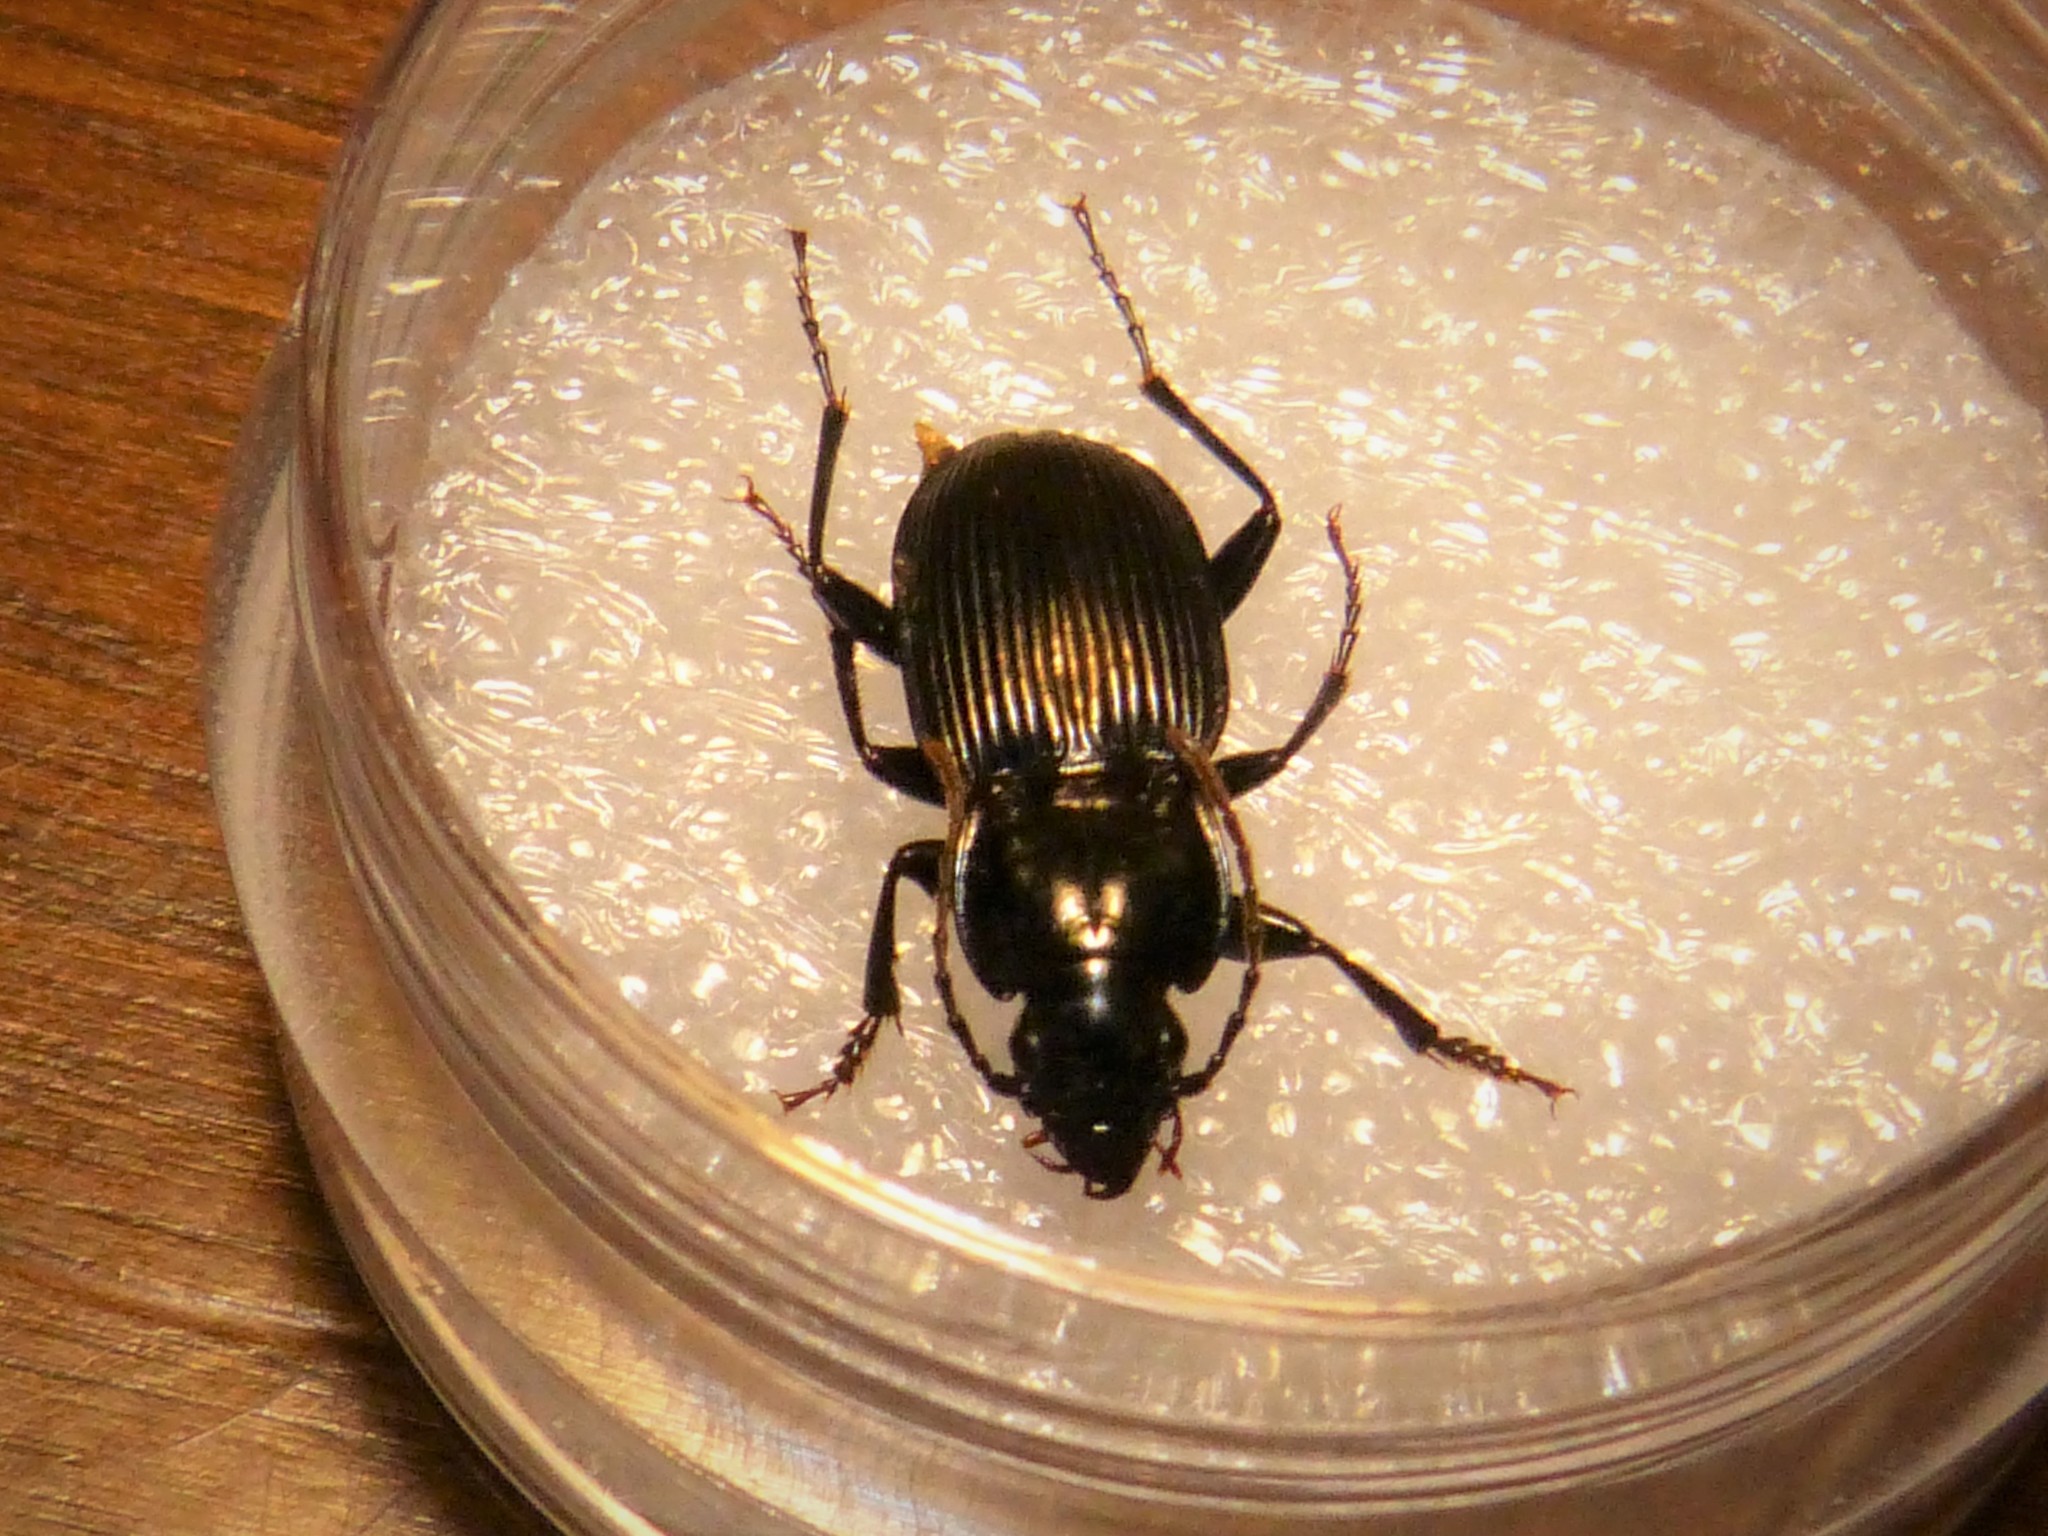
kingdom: Animalia
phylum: Arthropoda
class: Insecta
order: Coleoptera
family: Carabidae
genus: Pterostichus
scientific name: Pterostichus pedemontanus
